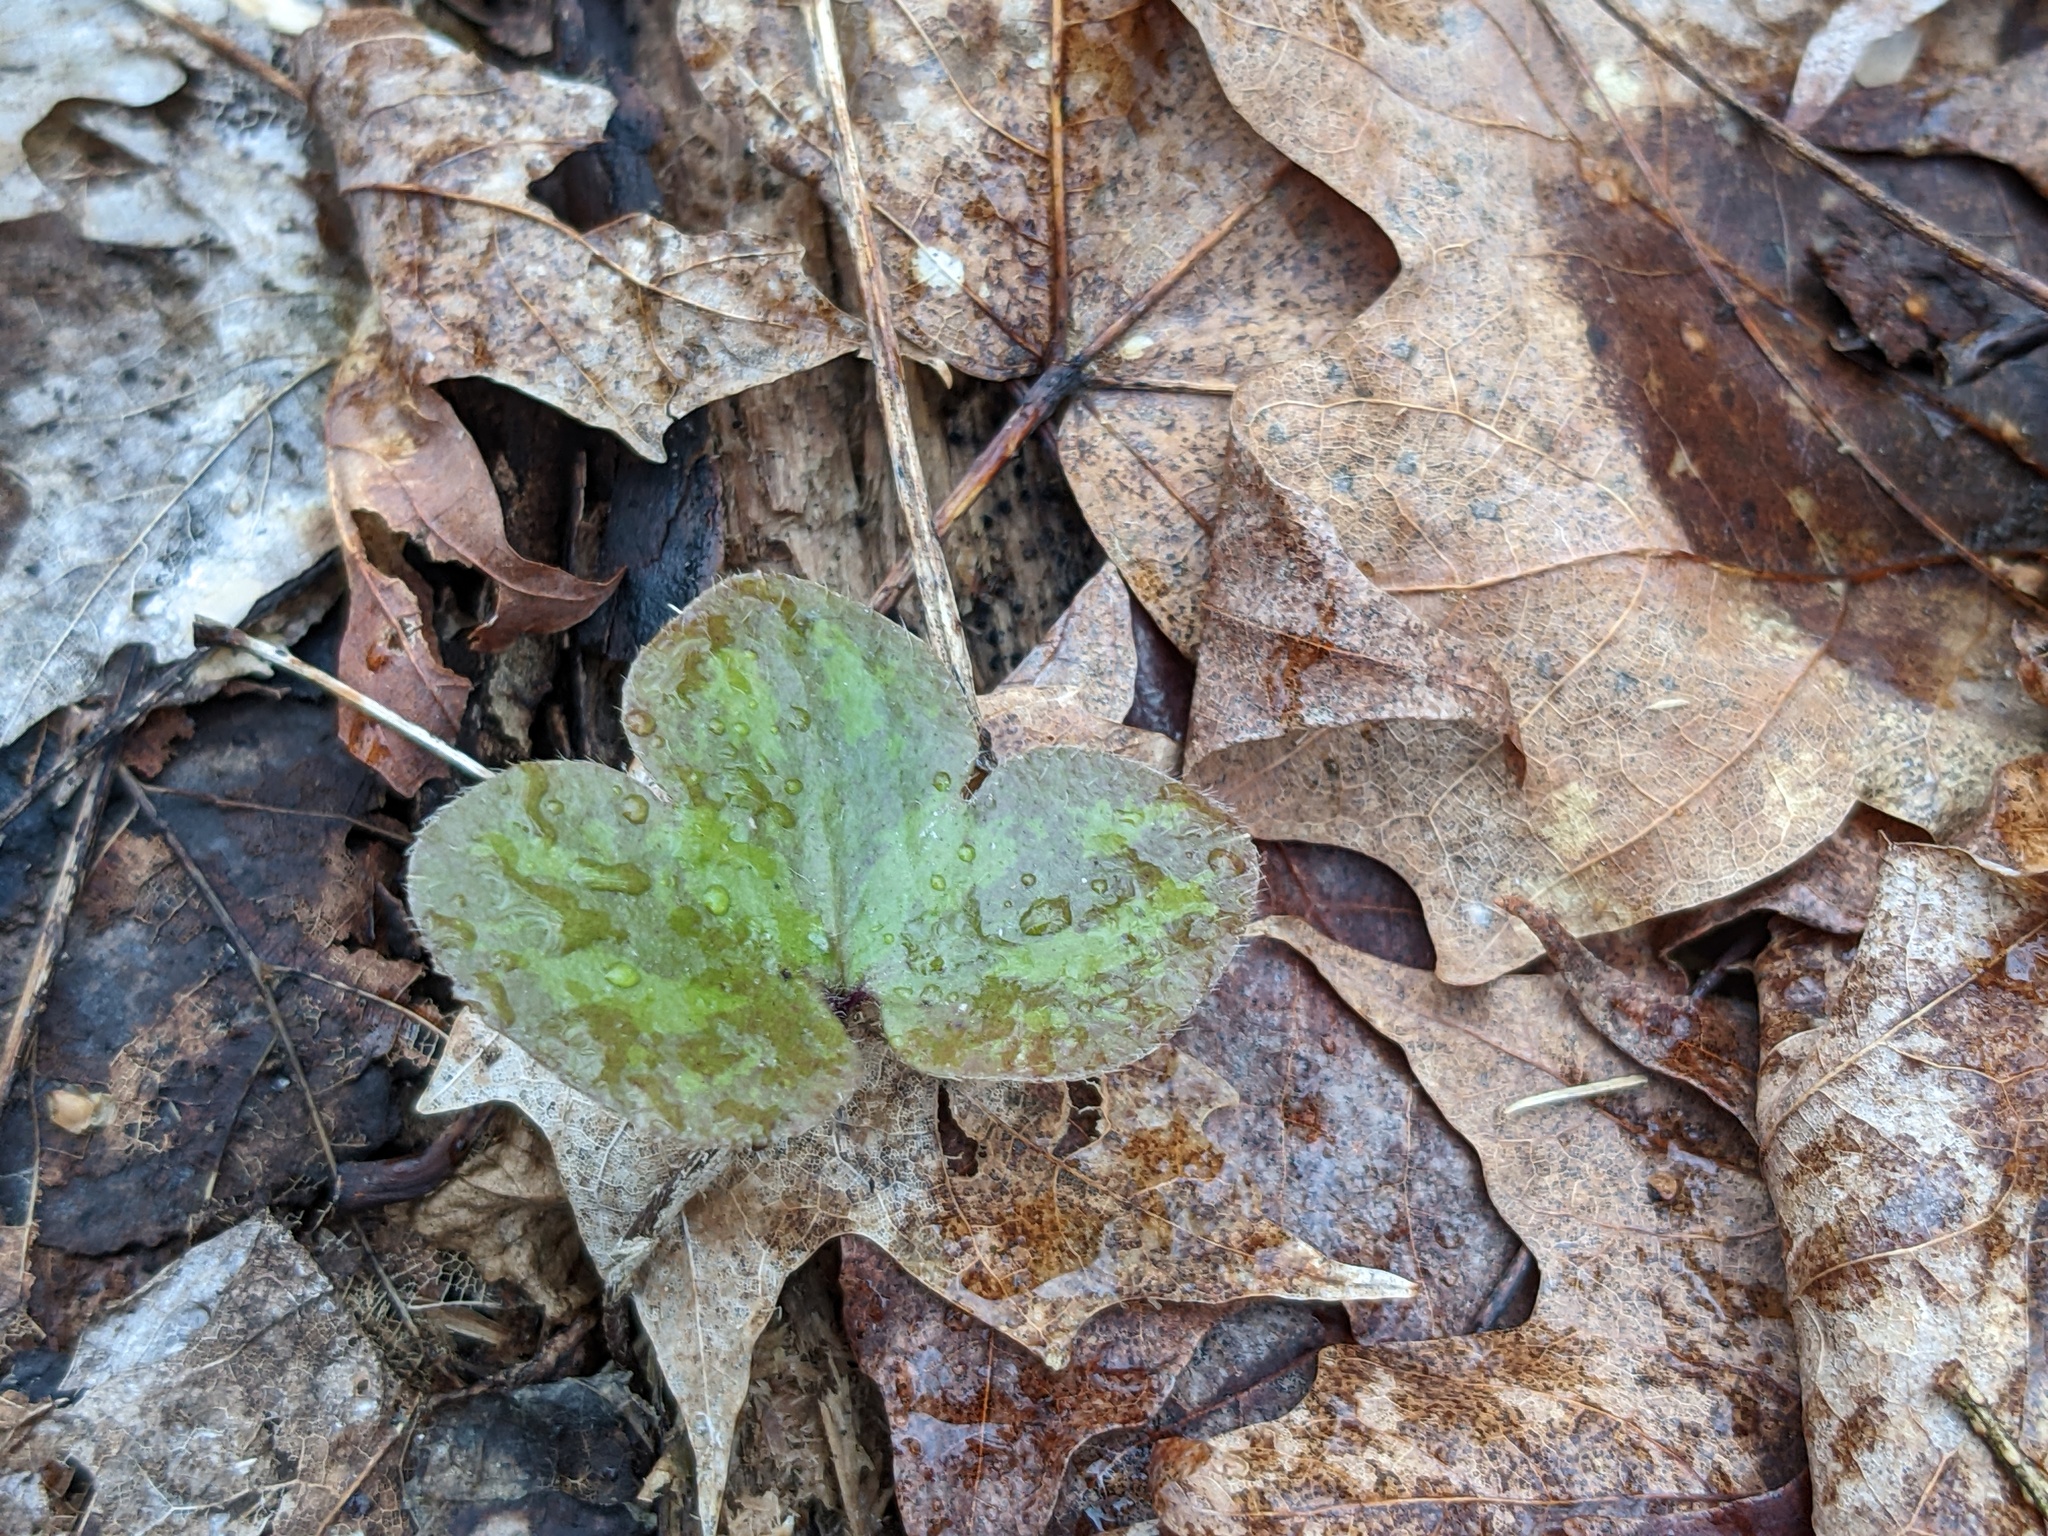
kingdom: Plantae
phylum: Tracheophyta
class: Magnoliopsida
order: Ranunculales
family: Ranunculaceae
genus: Hepatica
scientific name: Hepatica americana
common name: American hepatica
